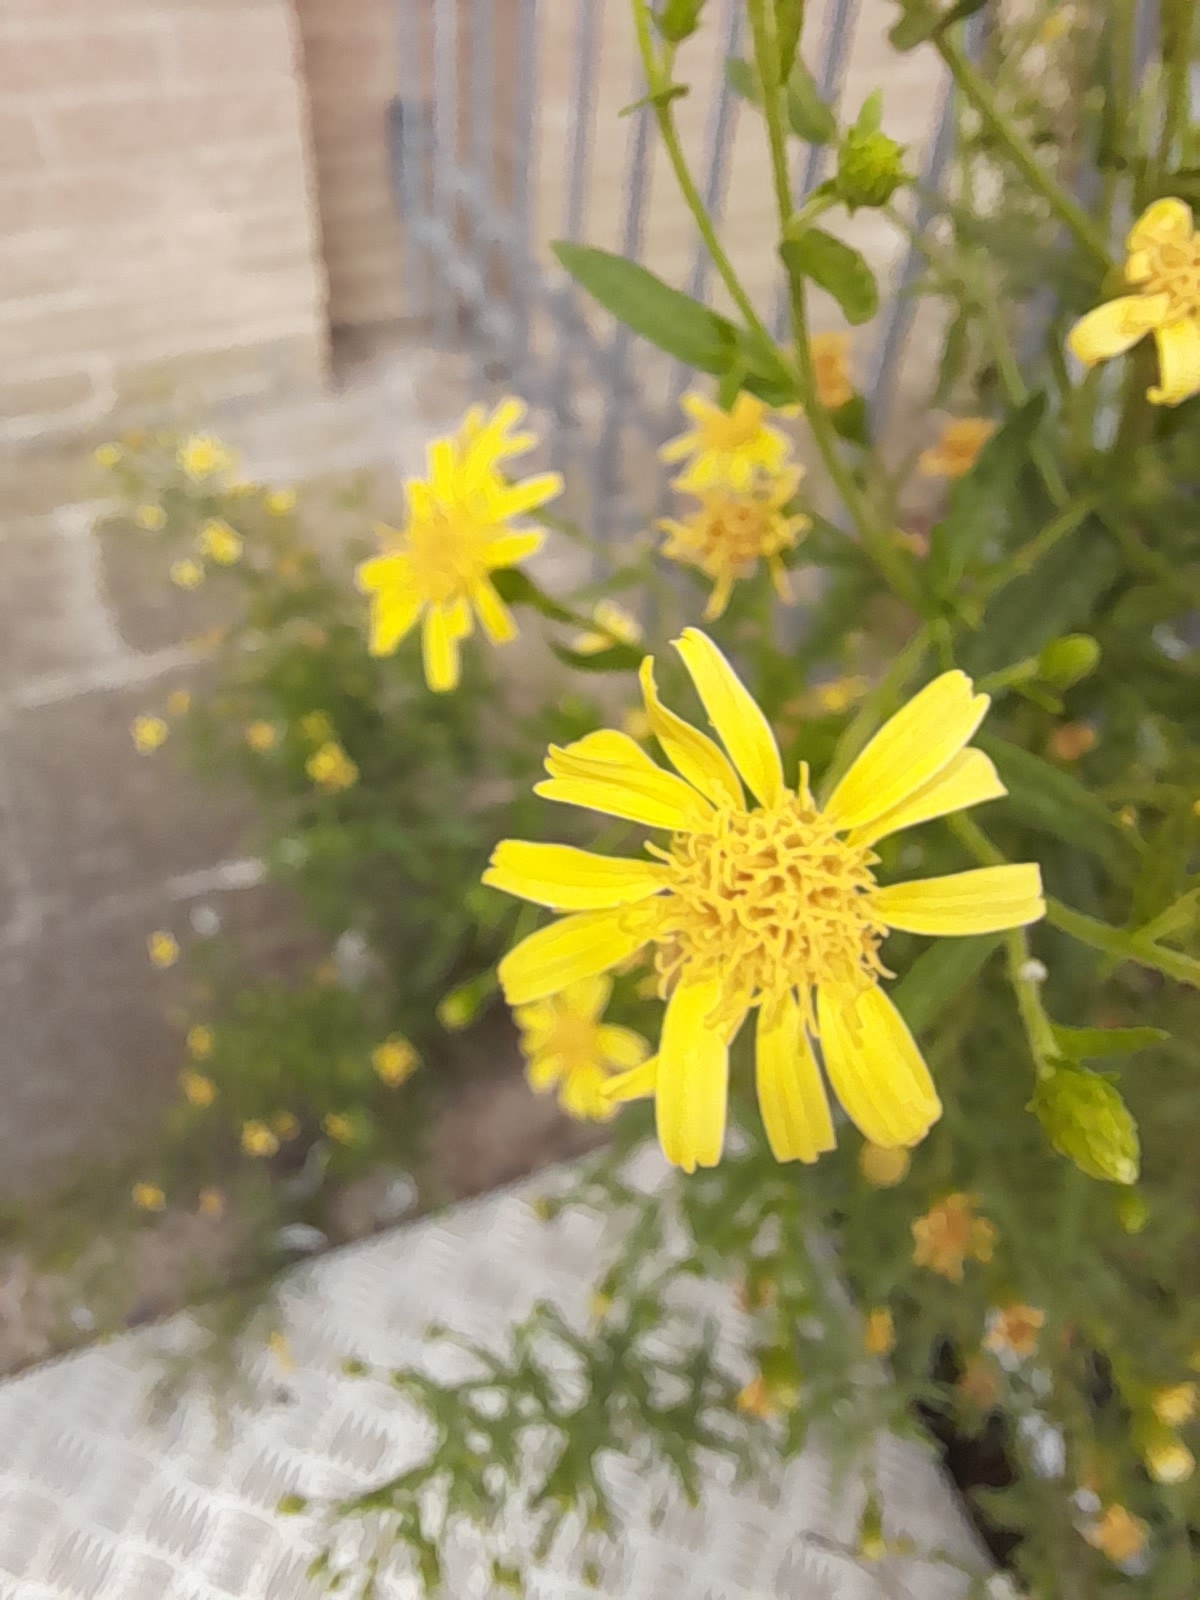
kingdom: Plantae
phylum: Tracheophyta
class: Magnoliopsida
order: Asterales
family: Asteraceae
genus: Dittrichia
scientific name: Dittrichia viscosa
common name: Woody fleabane
